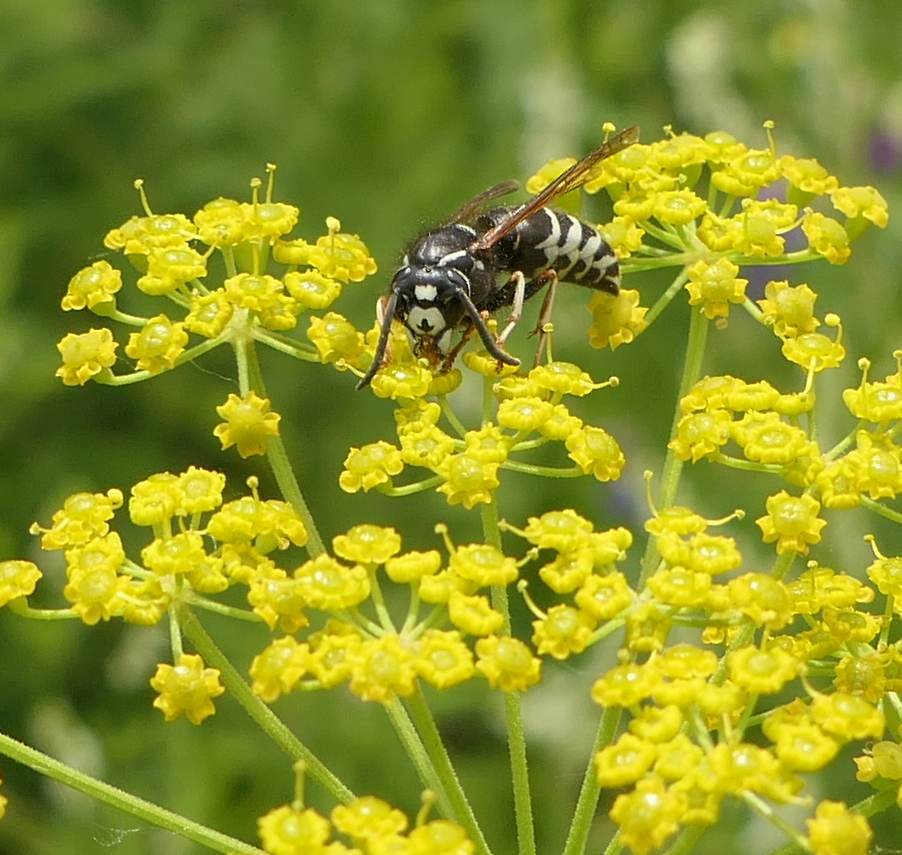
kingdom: Animalia
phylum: Arthropoda
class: Insecta
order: Hymenoptera
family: Vespidae
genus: Vespula
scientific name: Vespula consobrina
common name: Blackjacket
